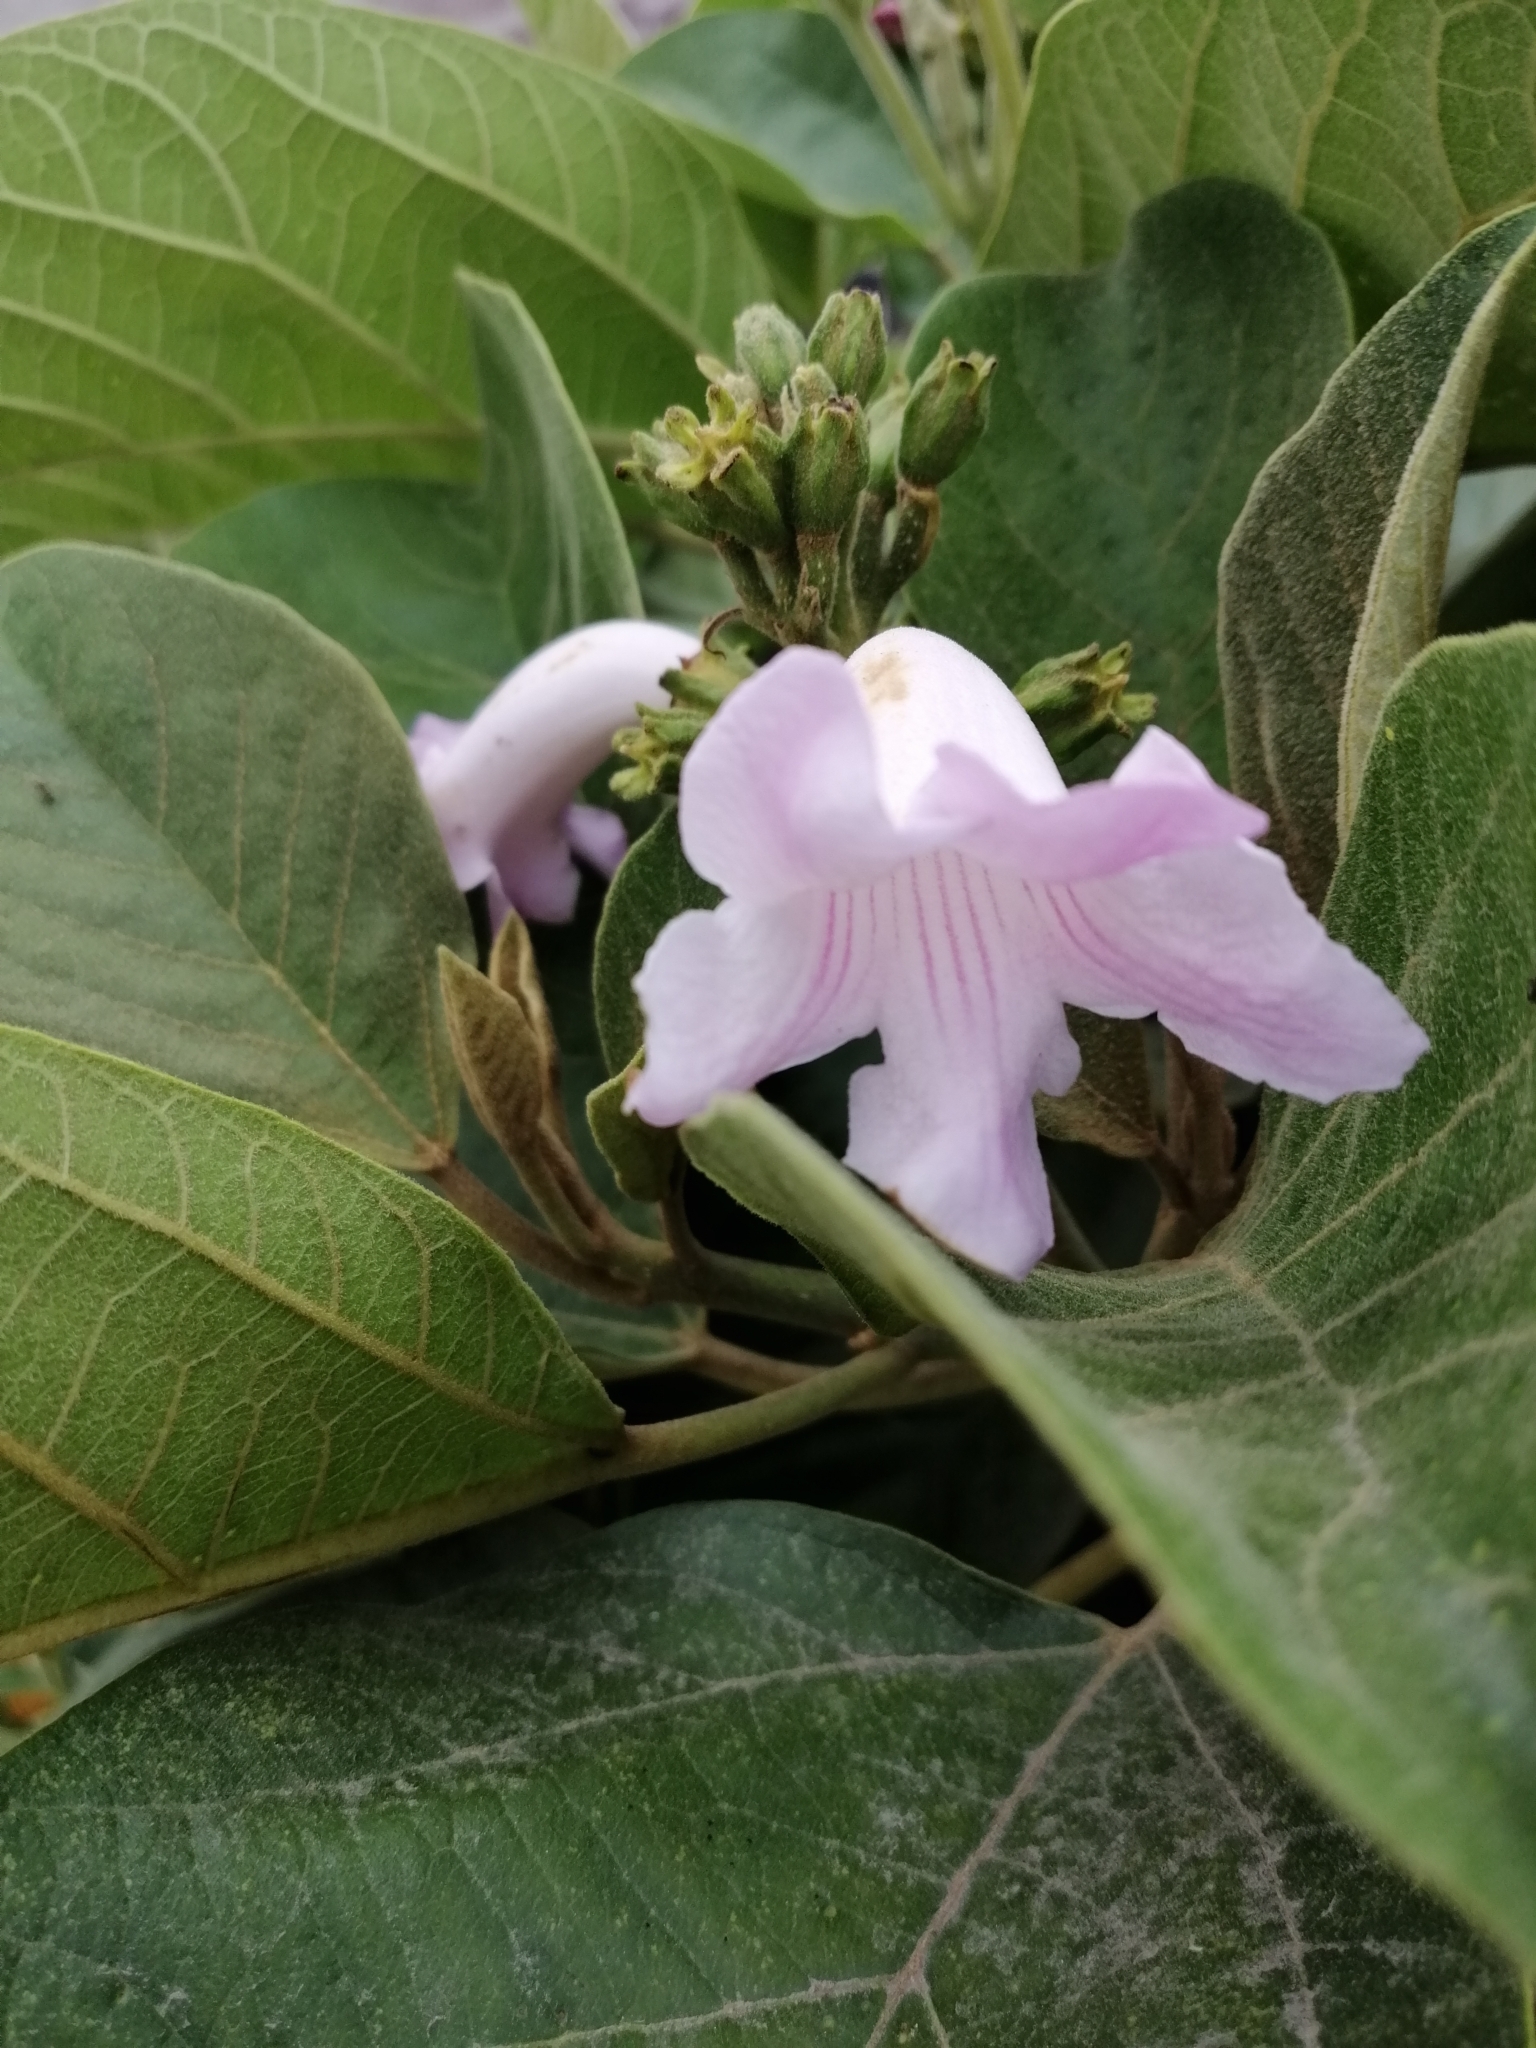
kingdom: Plantae
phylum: Tracheophyta
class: Magnoliopsida
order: Lamiales
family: Bignoniaceae
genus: Delostoma
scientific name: Delostoma integrifolium
